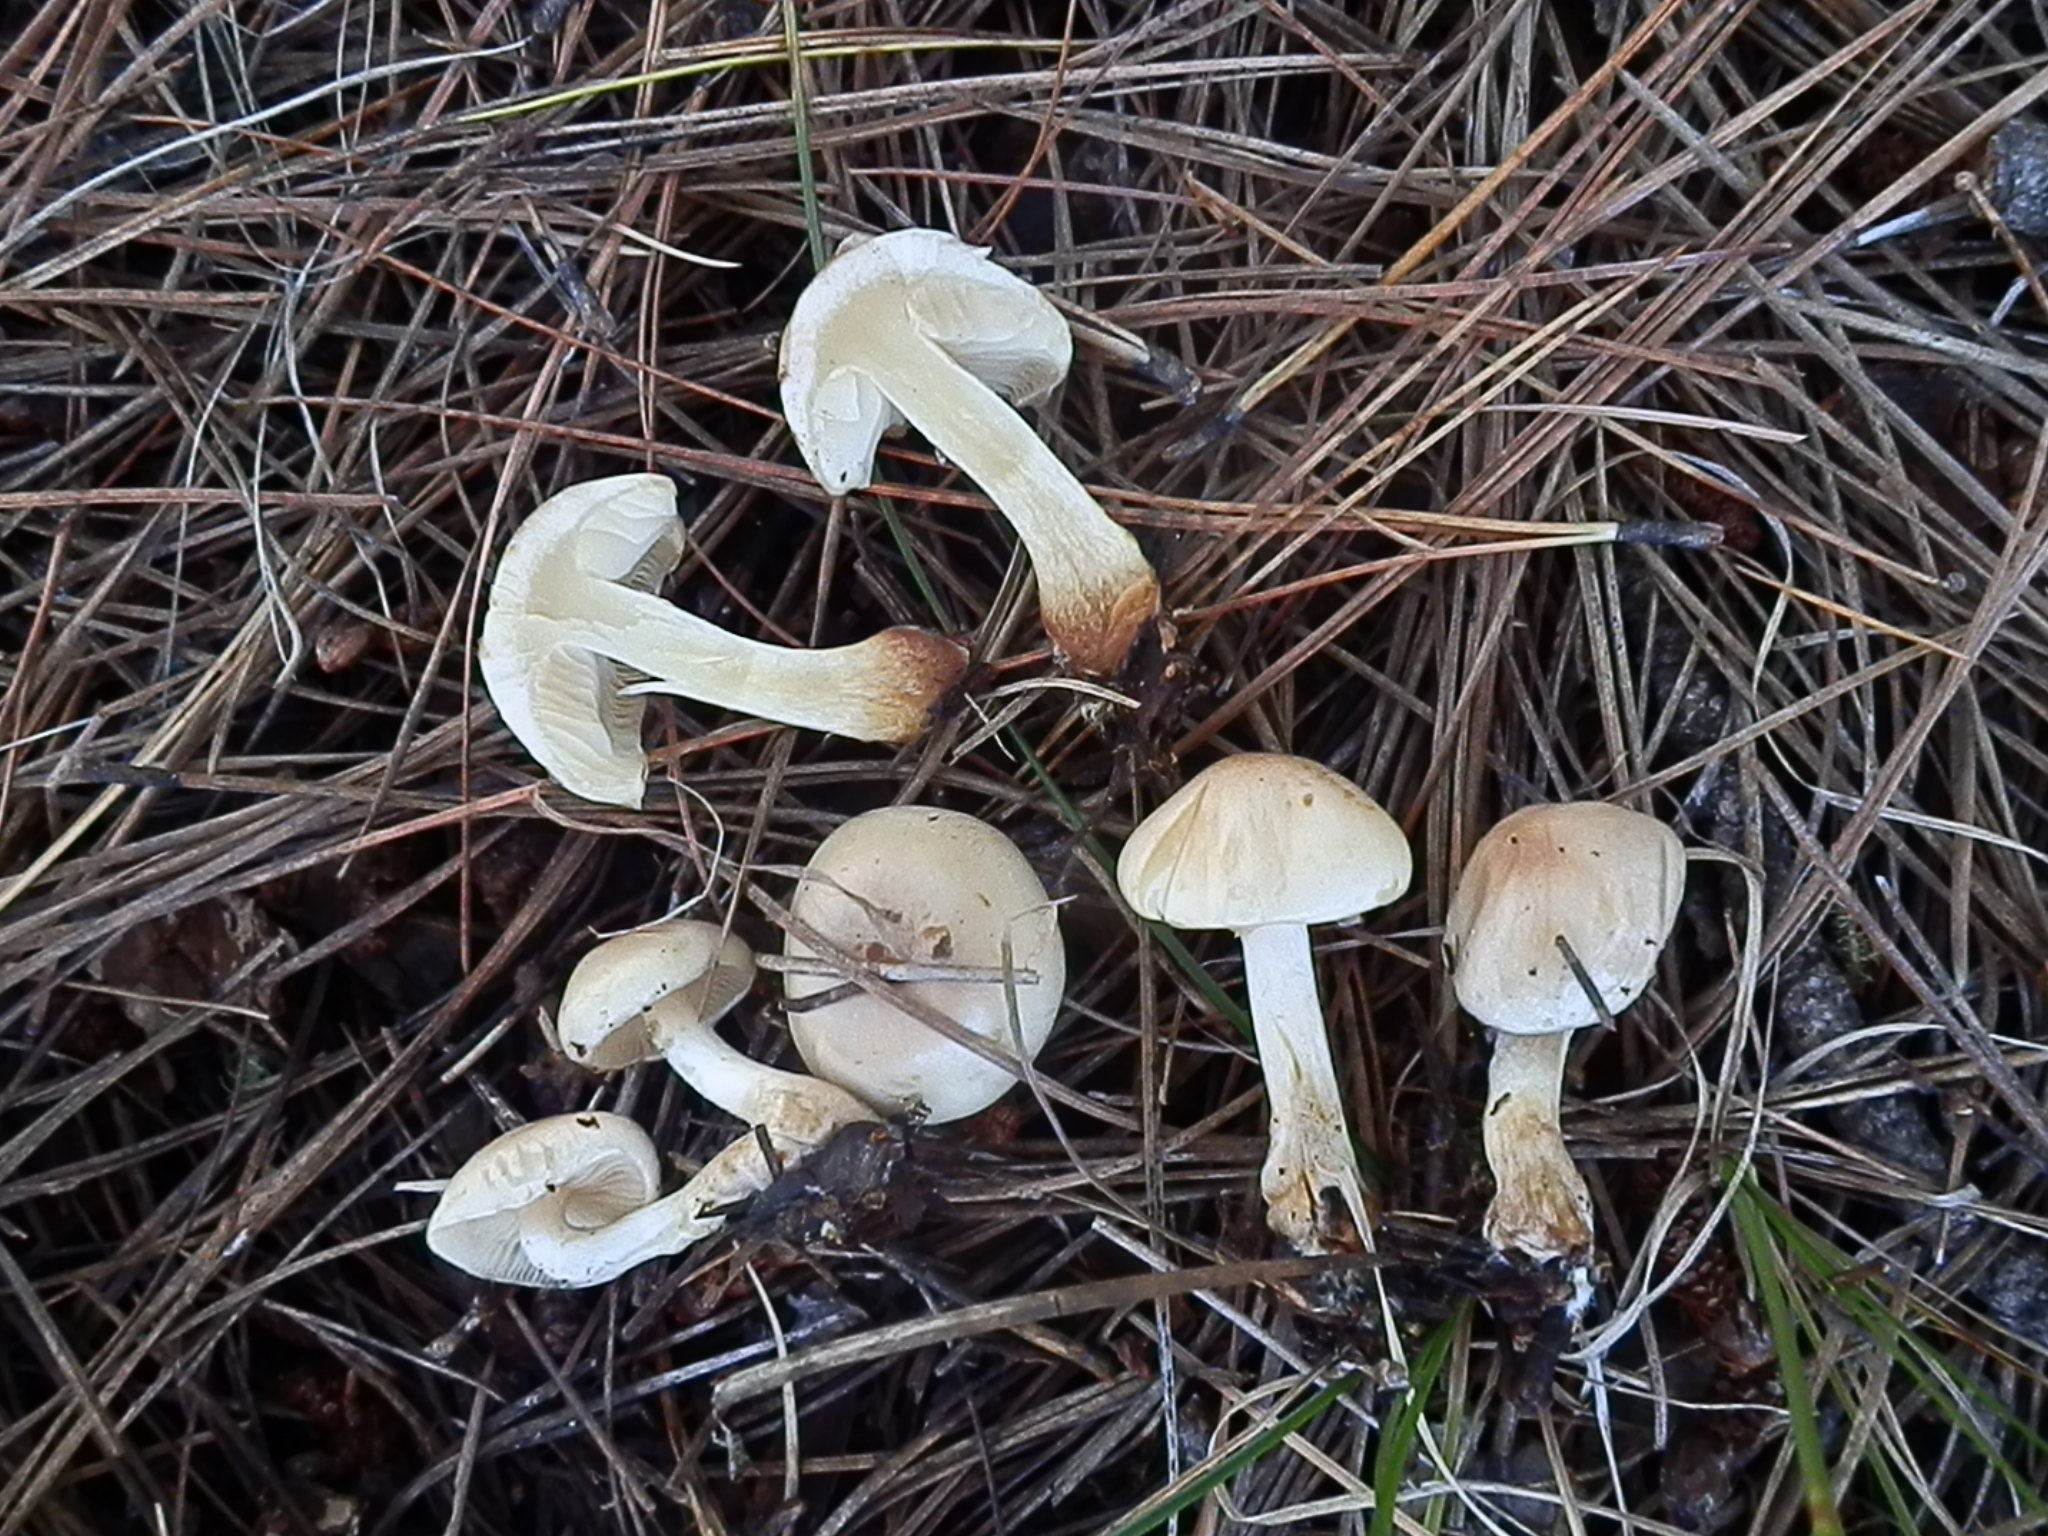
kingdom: Fungi
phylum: Basidiomycota
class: Agaricomycetes
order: Agaricales
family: Strophariaceae
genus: Pholiota
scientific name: Pholiota lenta
